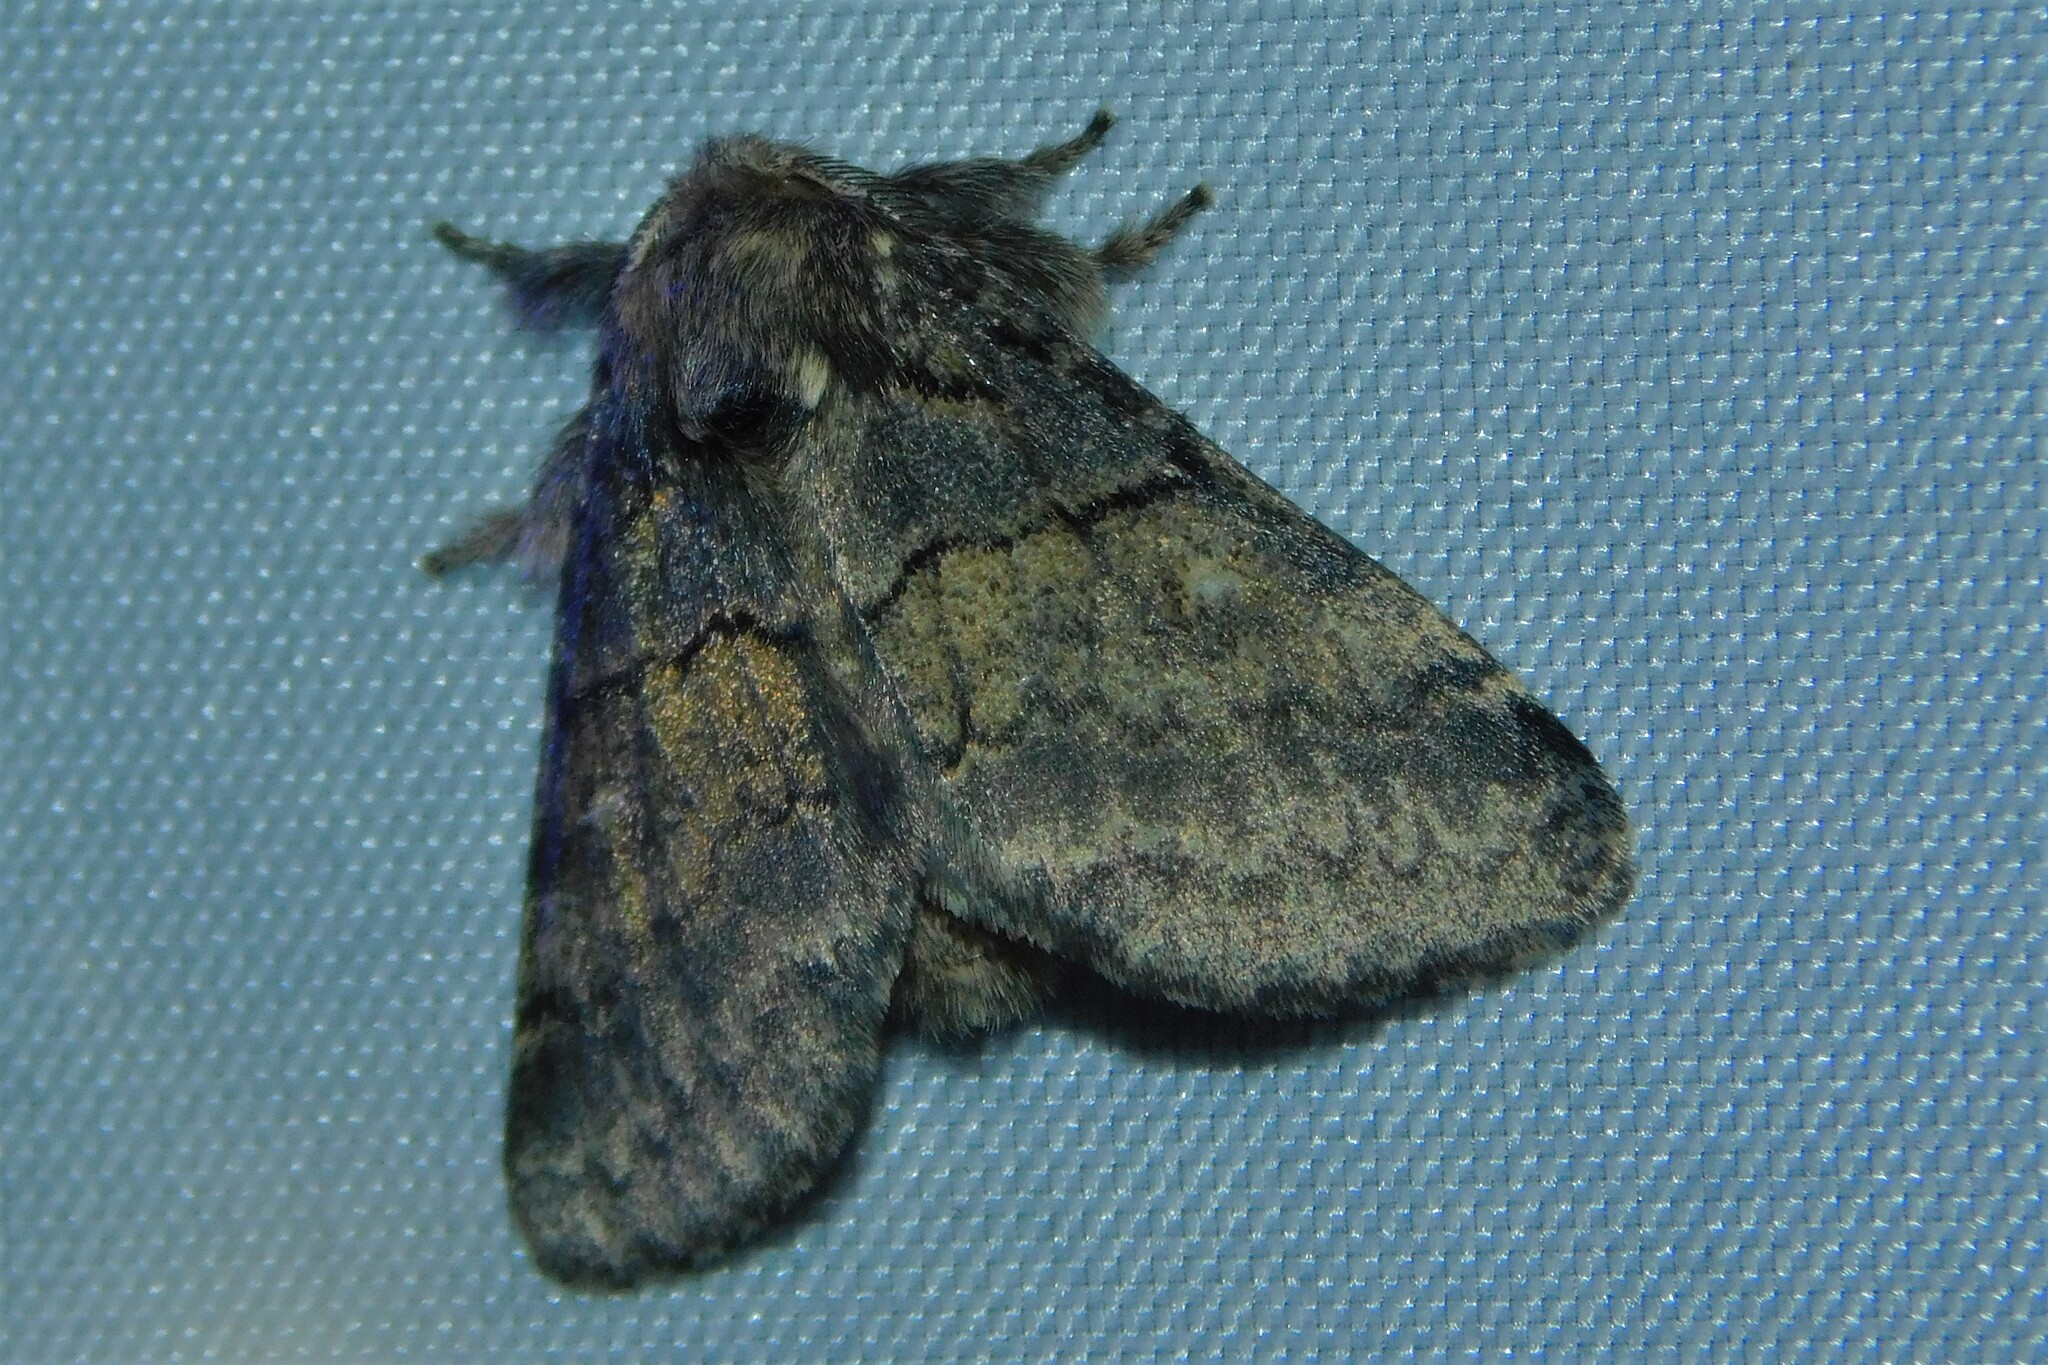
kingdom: Animalia
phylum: Arthropoda
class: Insecta
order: Lepidoptera
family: Notodontidae
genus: Gluphisia
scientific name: Gluphisia crenata
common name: Dusky marbled brown
